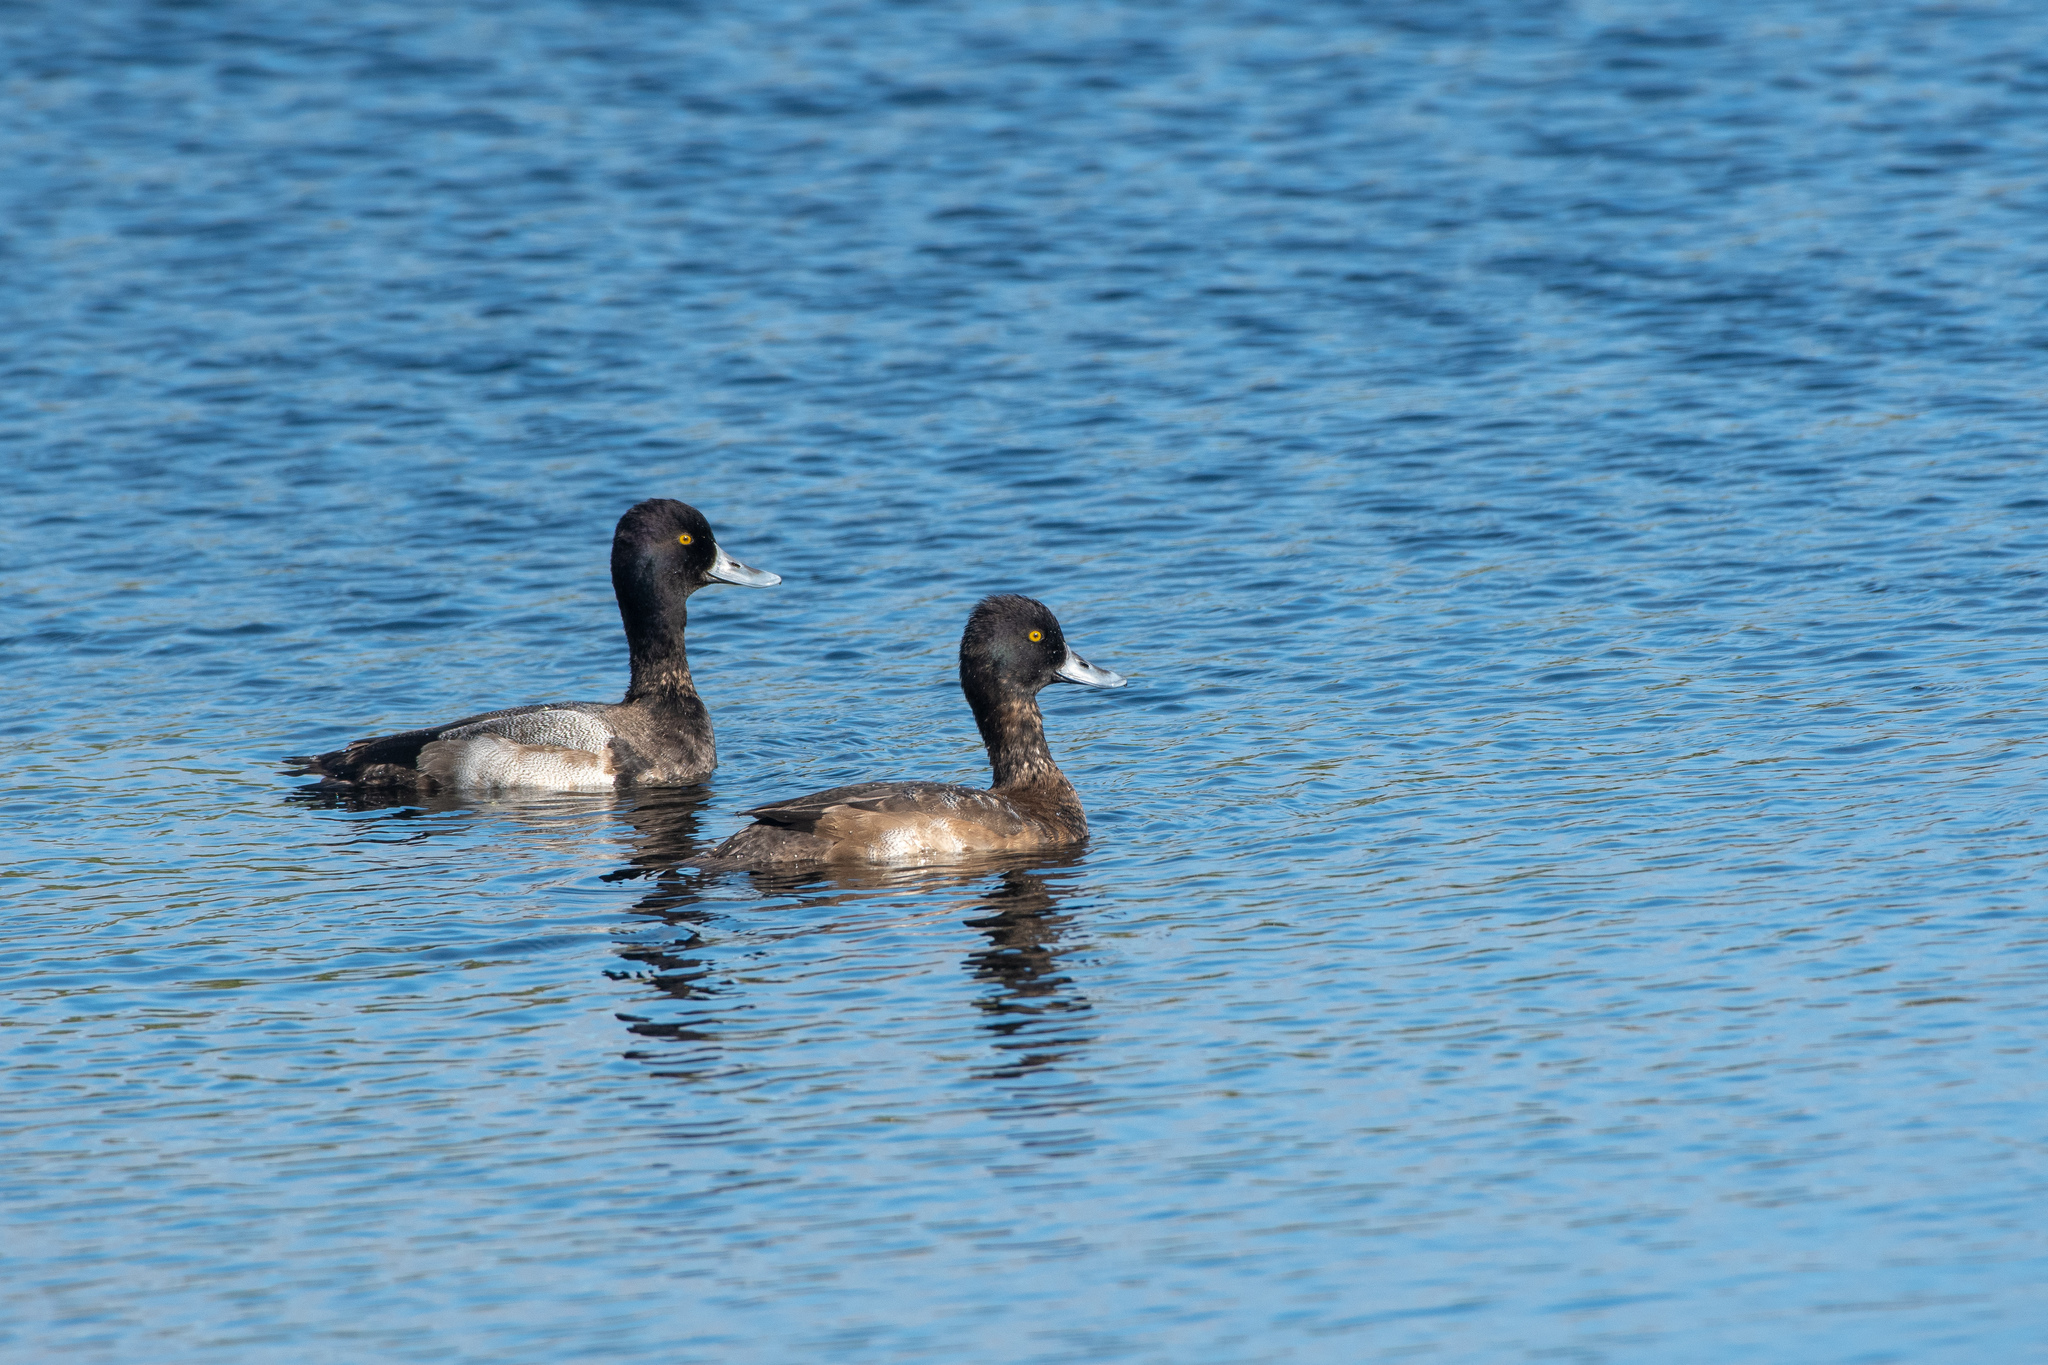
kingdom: Animalia
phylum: Chordata
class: Aves
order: Anseriformes
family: Anatidae
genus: Aythya
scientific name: Aythya affinis
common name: Lesser scaup
